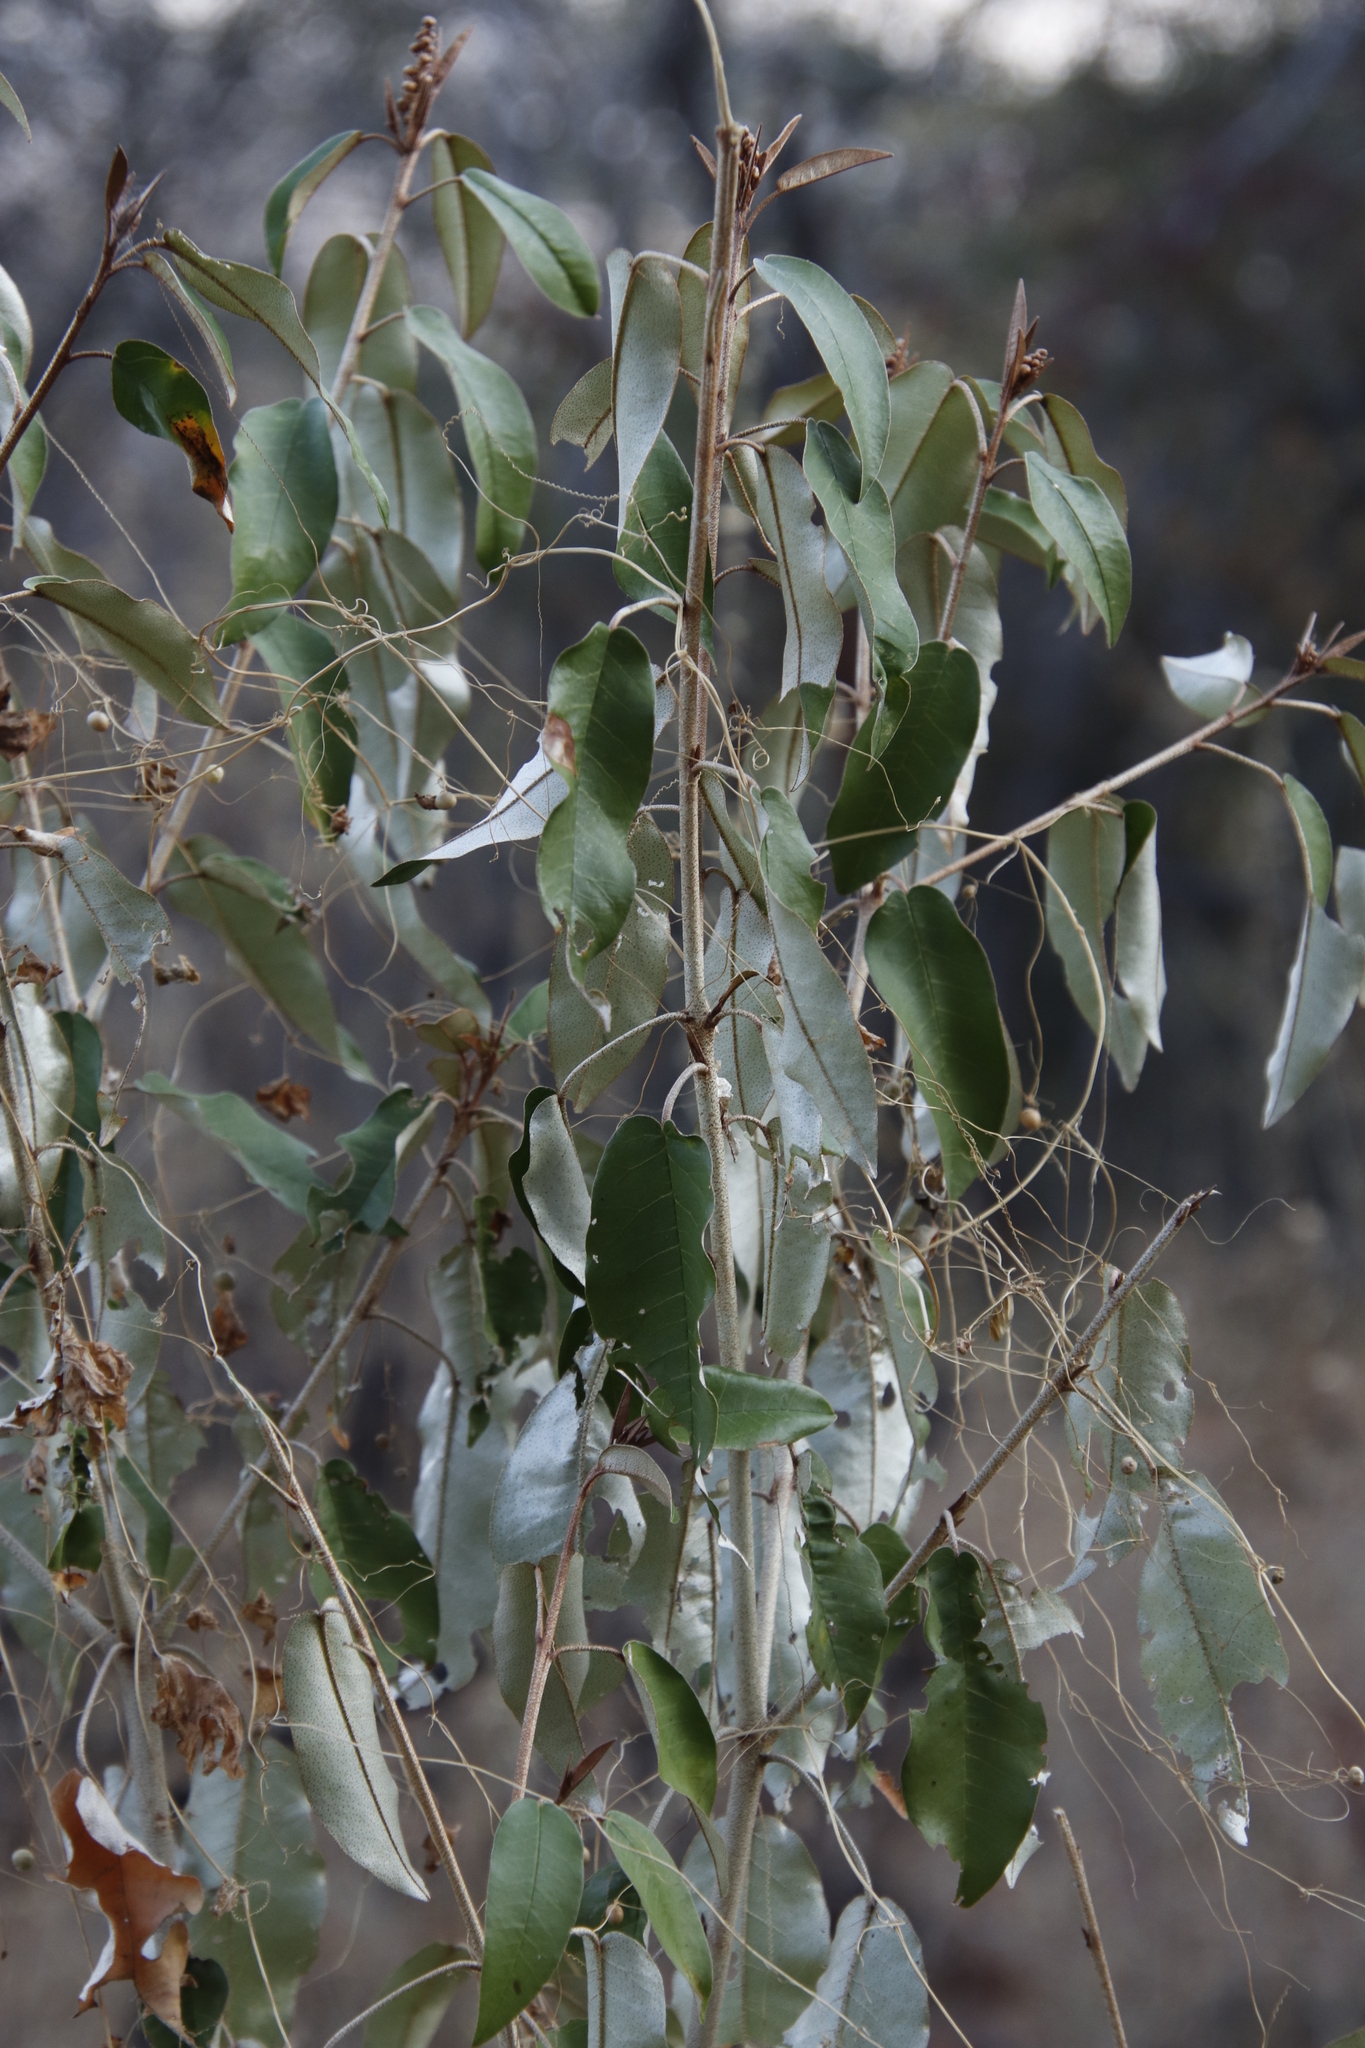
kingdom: Plantae
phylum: Tracheophyta
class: Magnoliopsida
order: Malpighiales
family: Euphorbiaceae
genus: Croton
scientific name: Croton gratissimus
